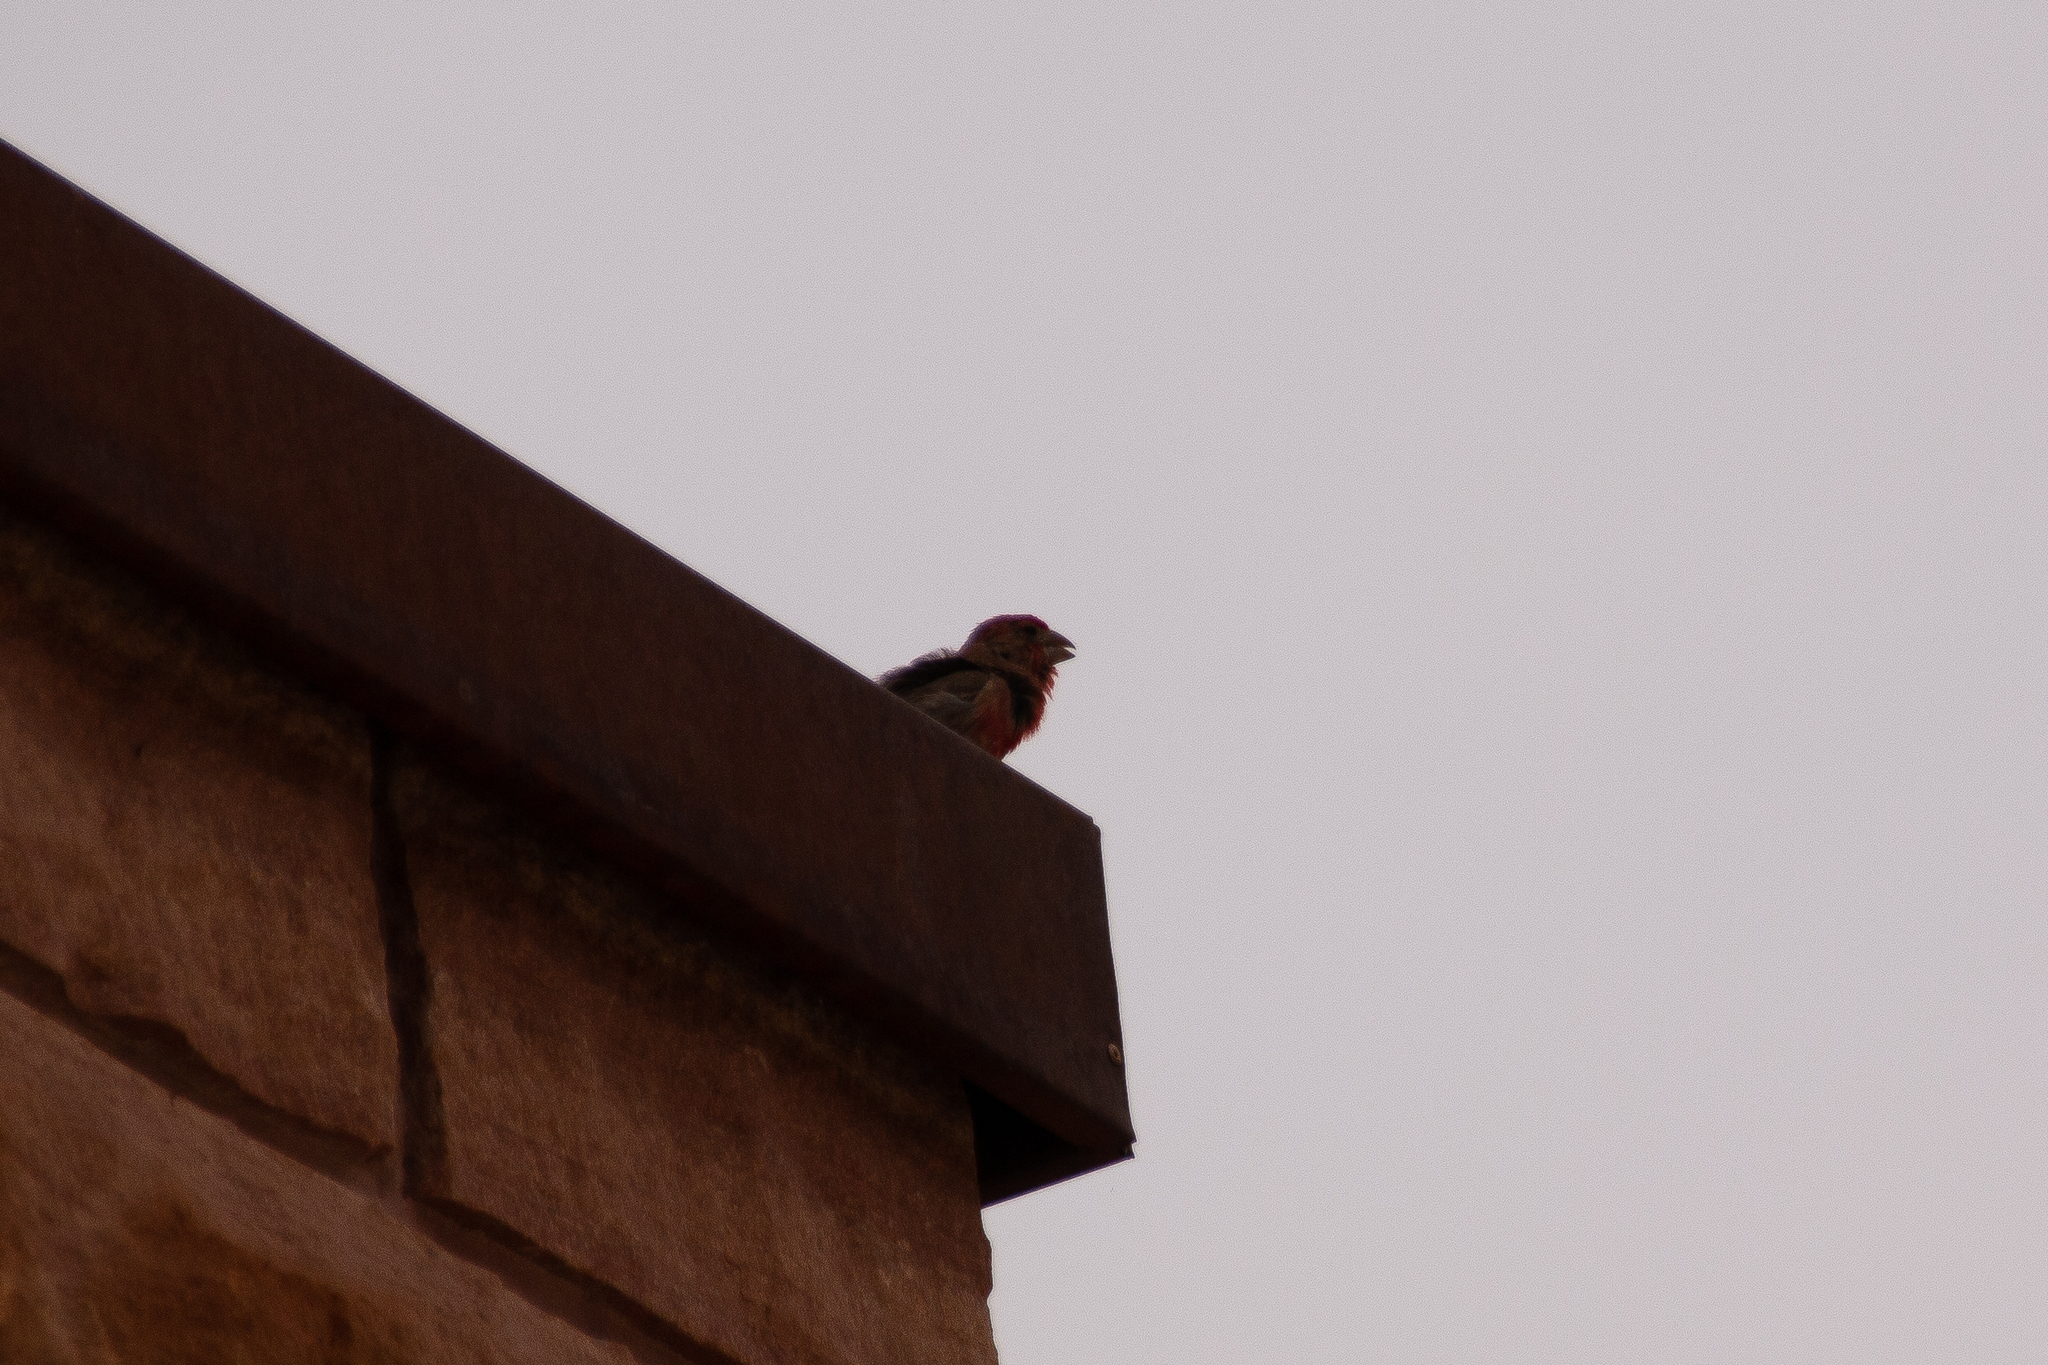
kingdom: Animalia
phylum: Chordata
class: Aves
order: Passeriformes
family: Fringillidae
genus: Haemorhous
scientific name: Haemorhous mexicanus
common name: House finch
